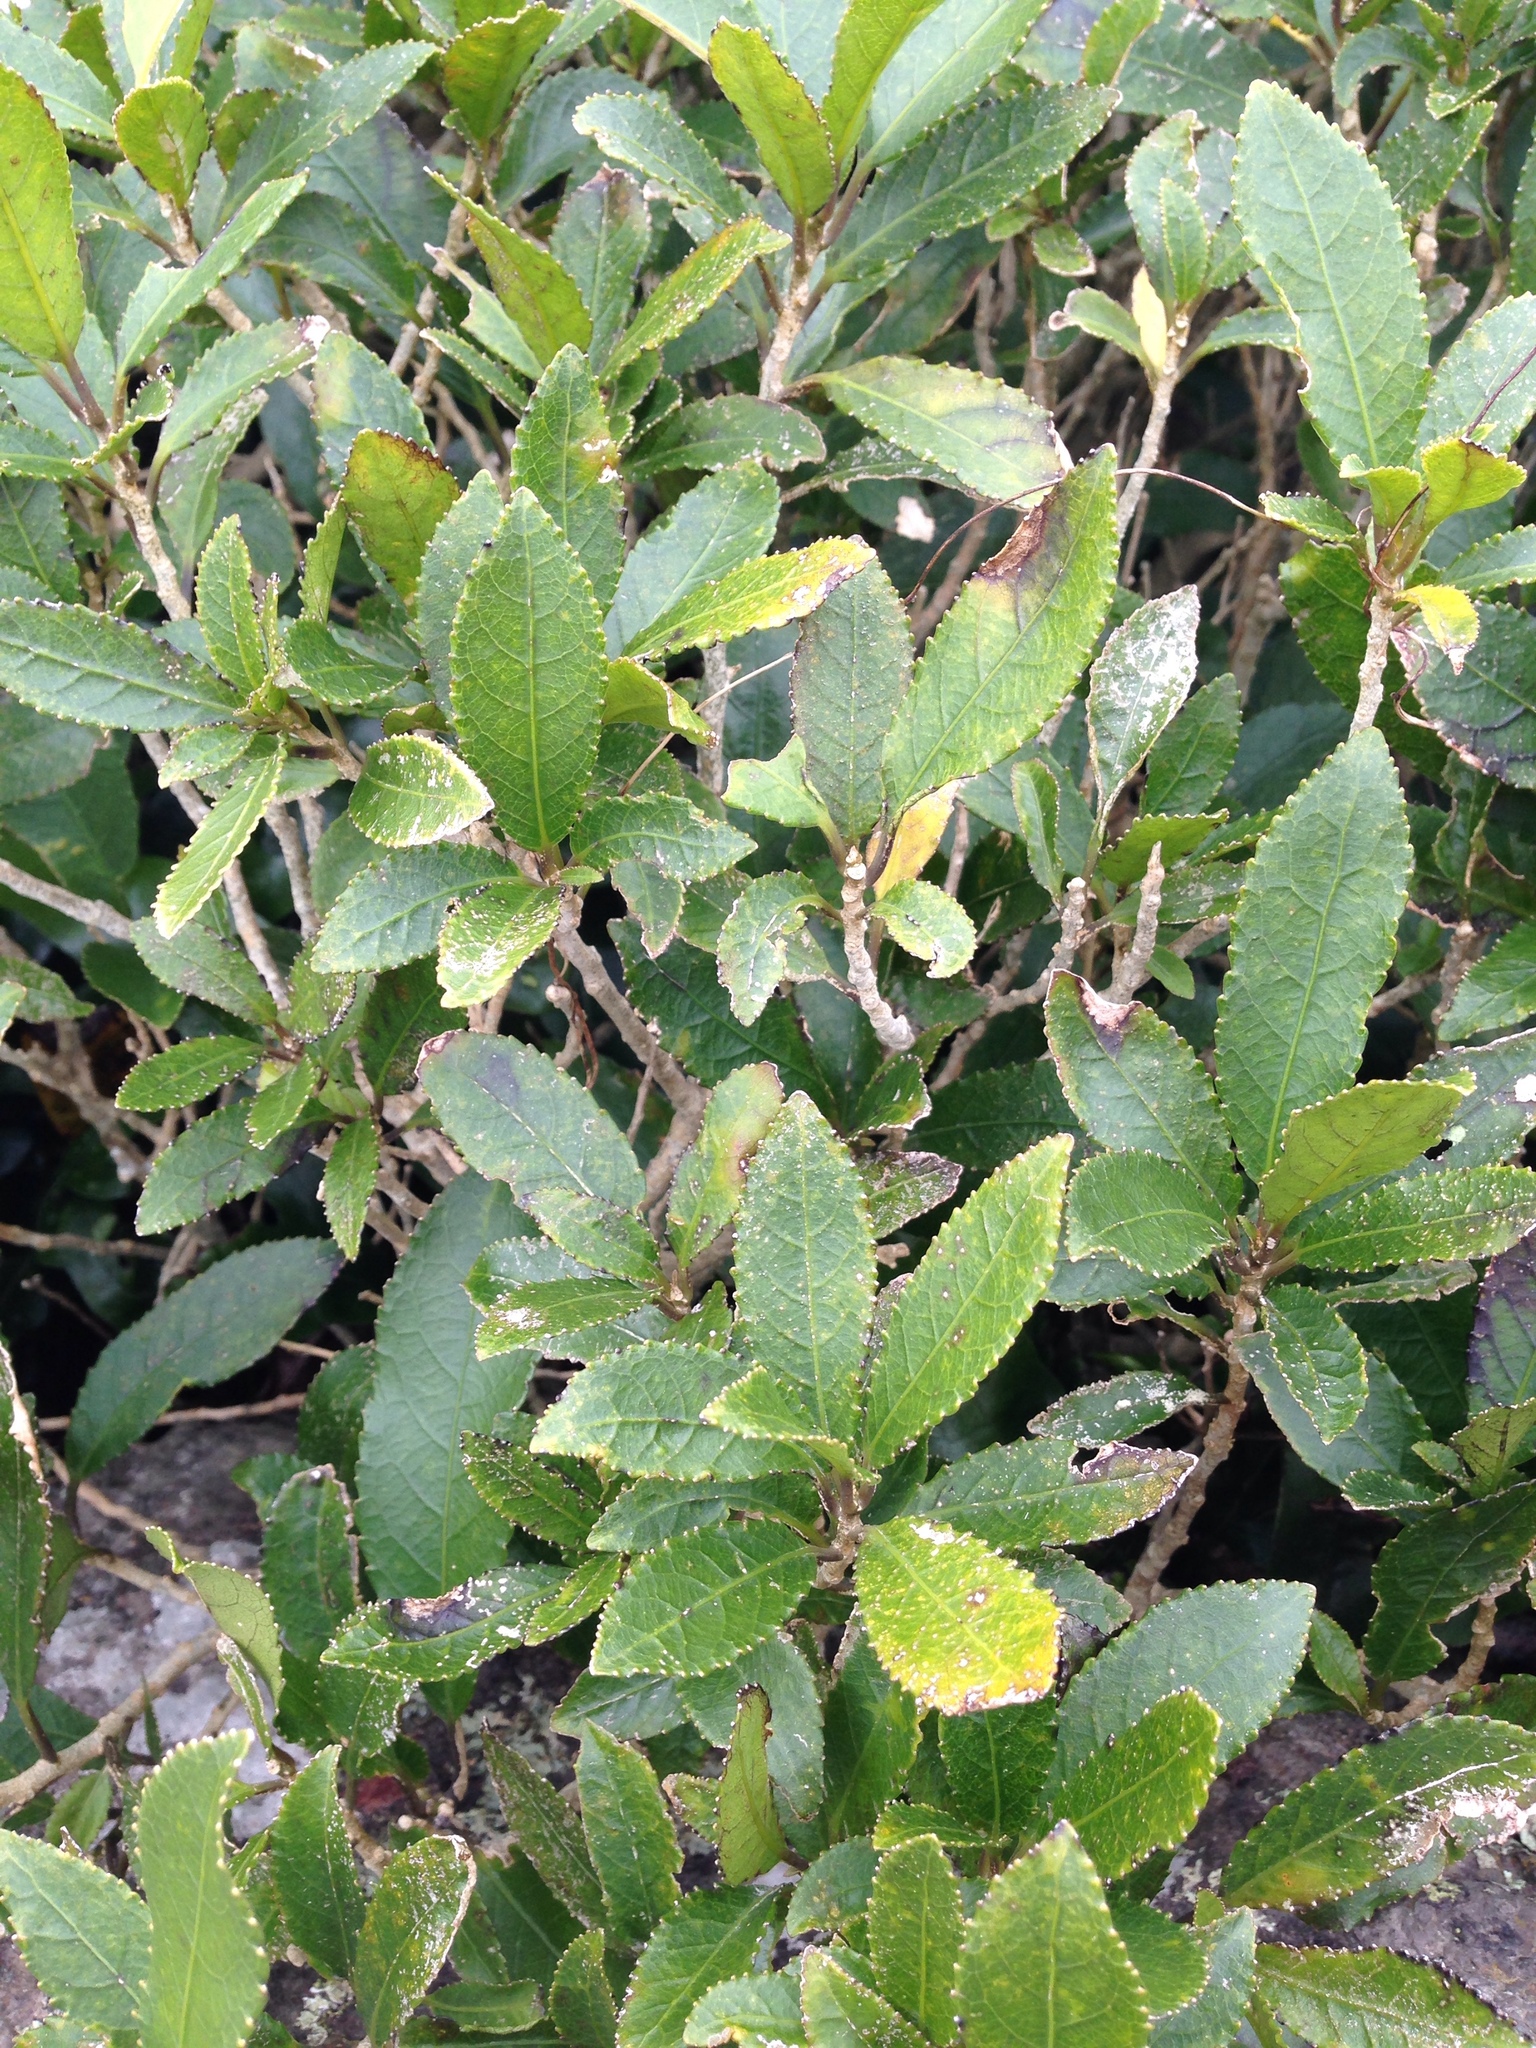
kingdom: Plantae
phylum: Tracheophyta
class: Magnoliopsida
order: Malpighiales
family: Violaceae
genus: Melicytus
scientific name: Melicytus ramiflorus
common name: Mahoe
